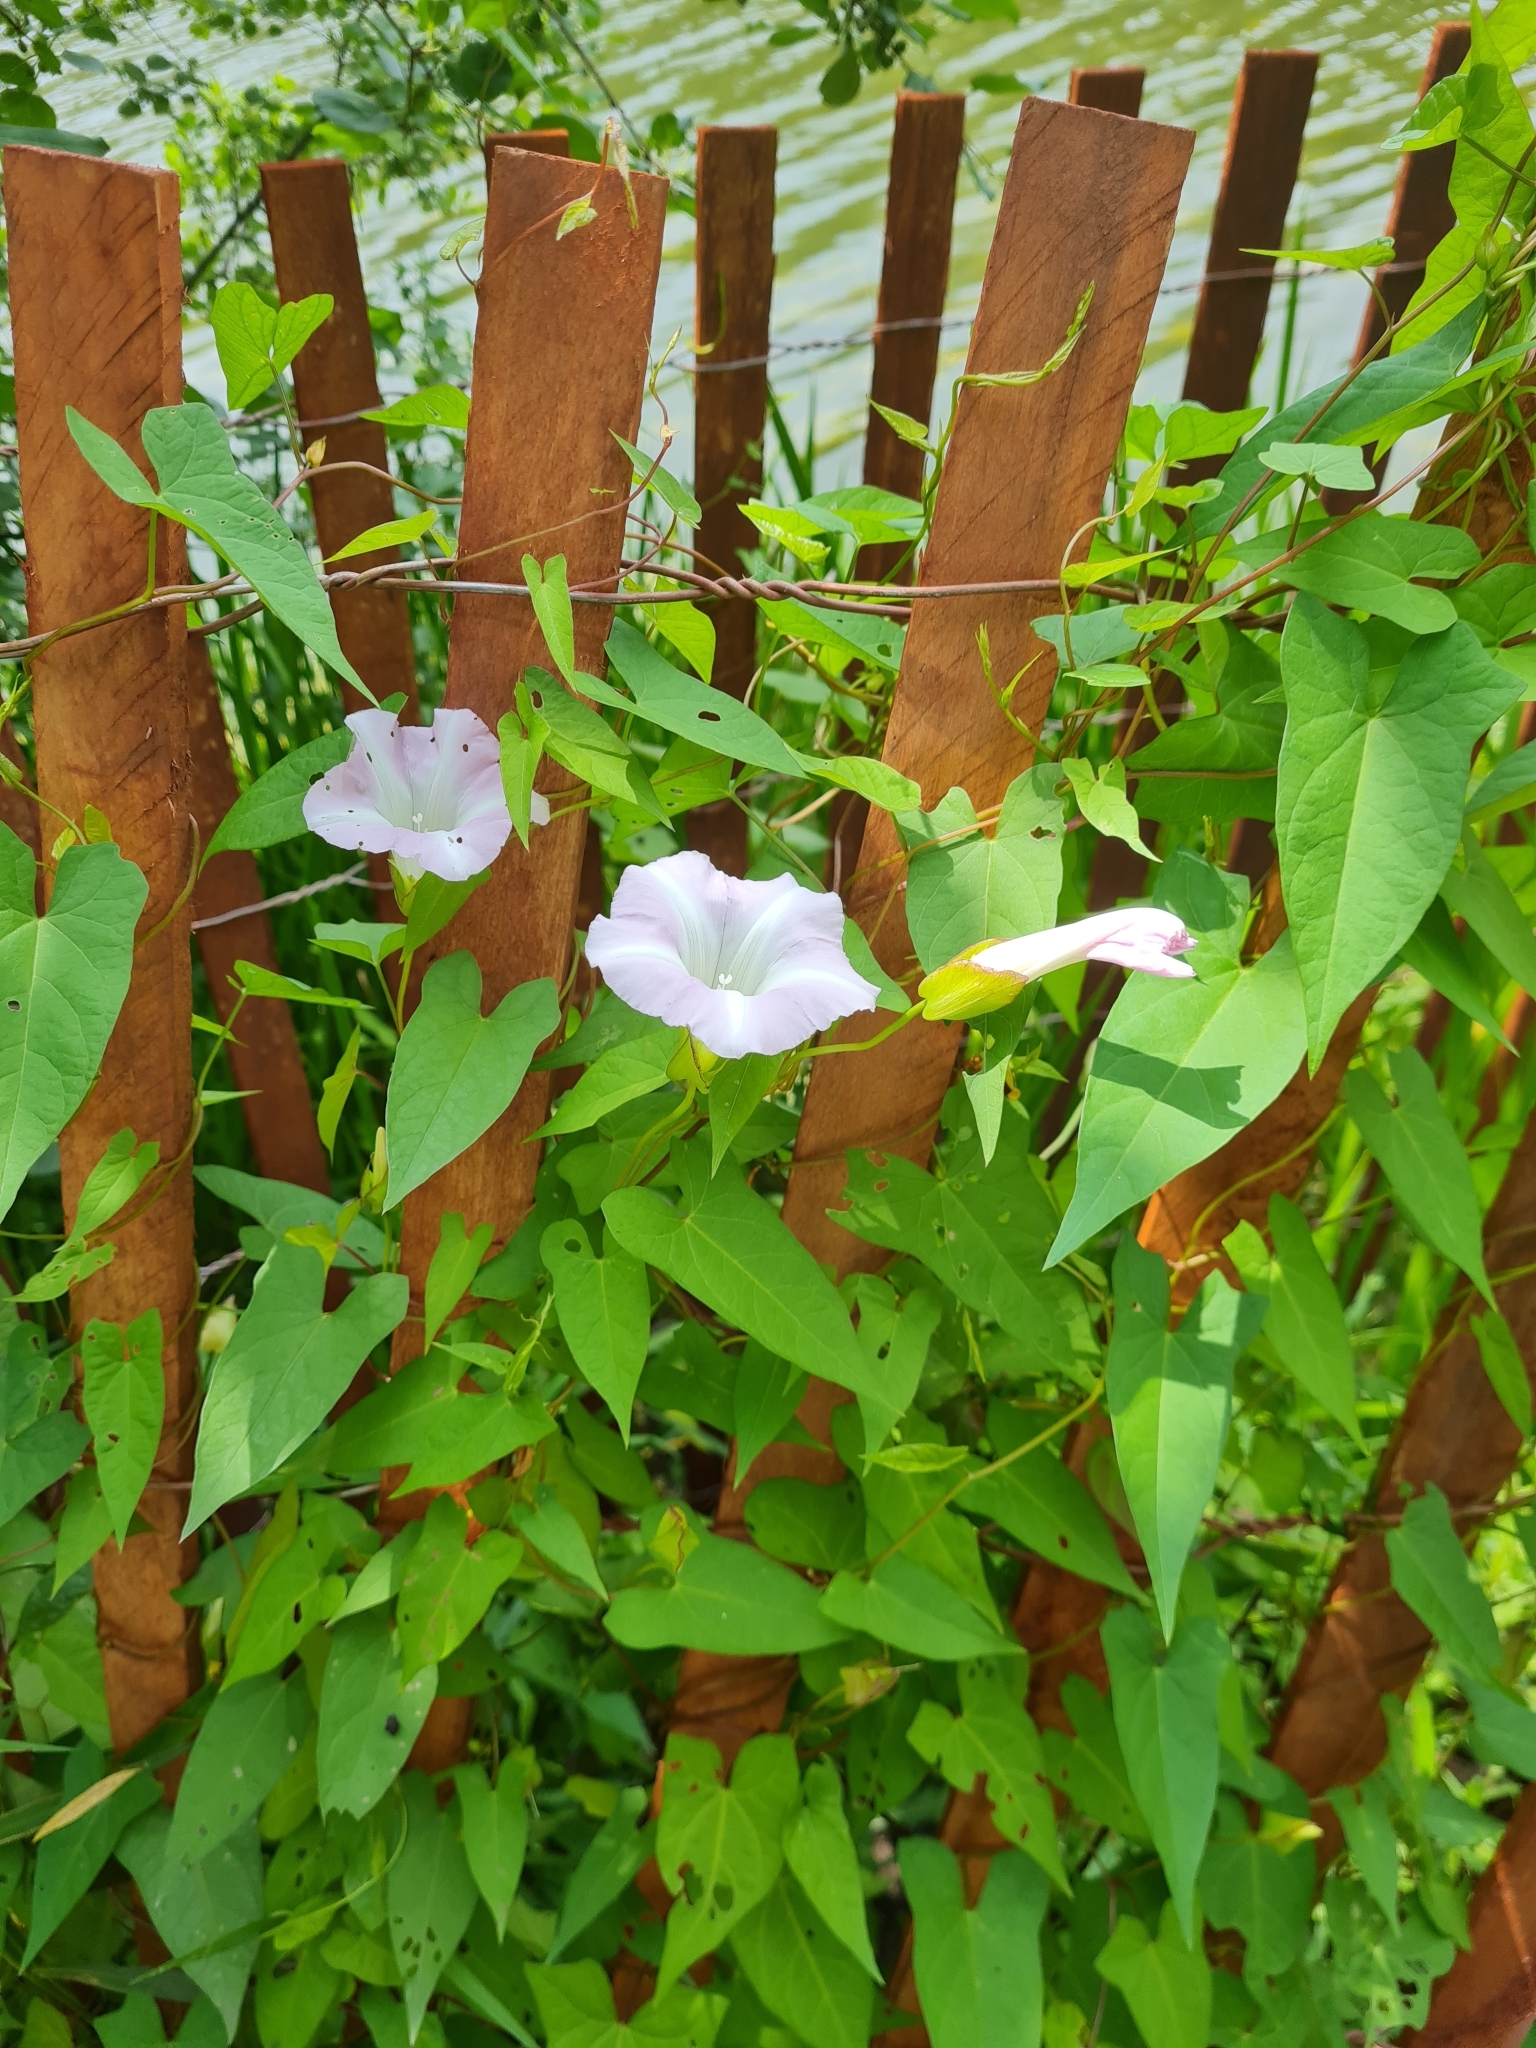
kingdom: Plantae
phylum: Tracheophyta
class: Magnoliopsida
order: Solanales
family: Convolvulaceae
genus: Calystegia
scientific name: Calystegia sepium
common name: Hedge bindweed
